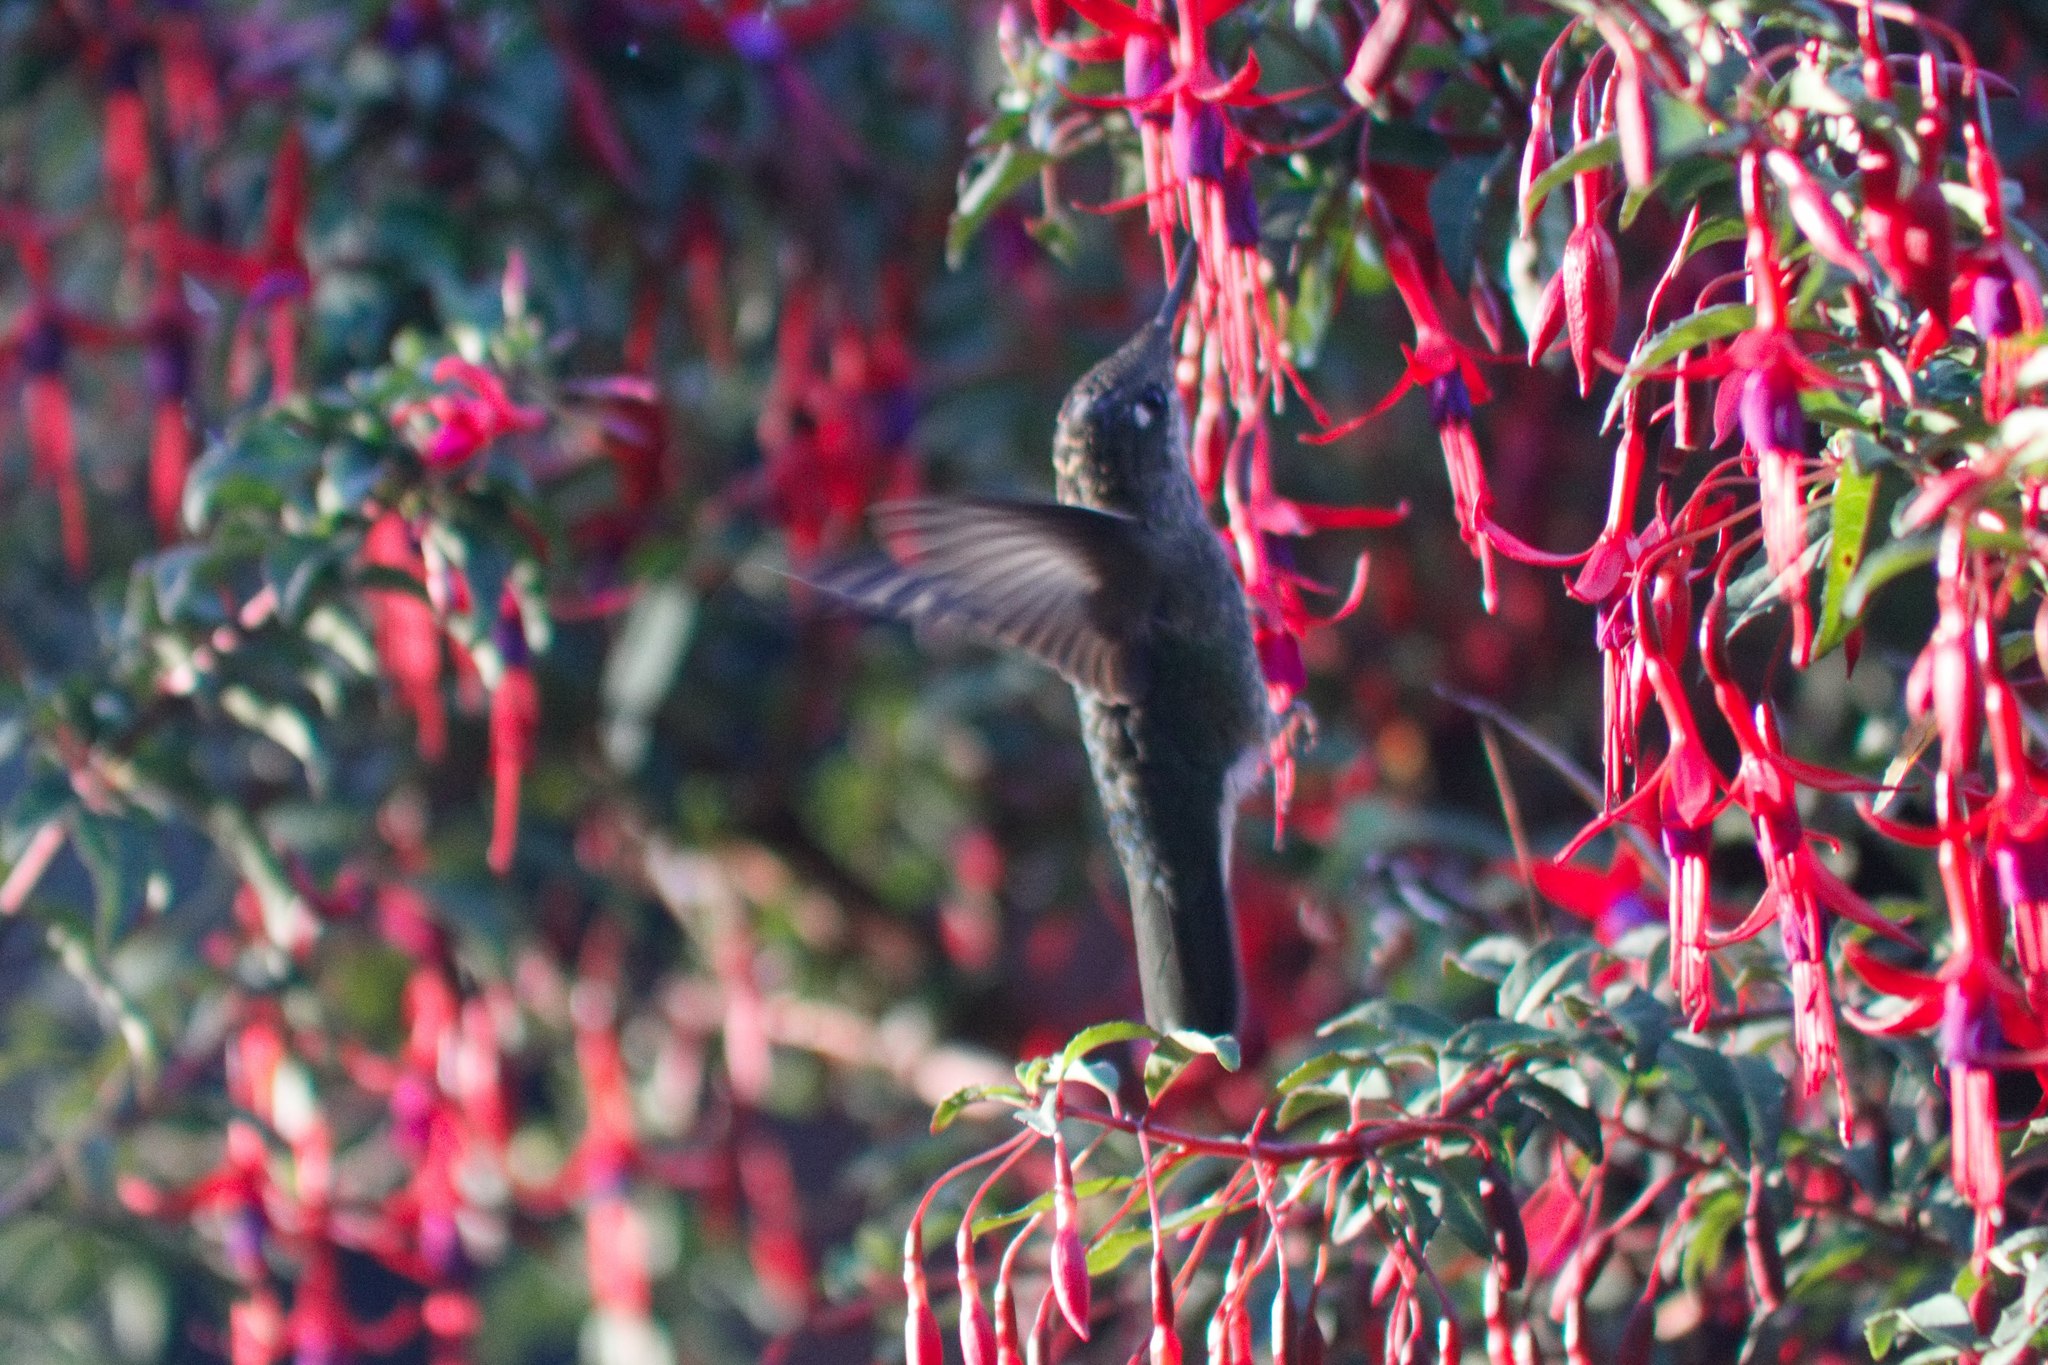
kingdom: Plantae
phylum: Tracheophyta
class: Magnoliopsida
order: Myrtales
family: Onagraceae
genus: Fuchsia
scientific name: Fuchsia magellanica
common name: Hardy fuchsia
